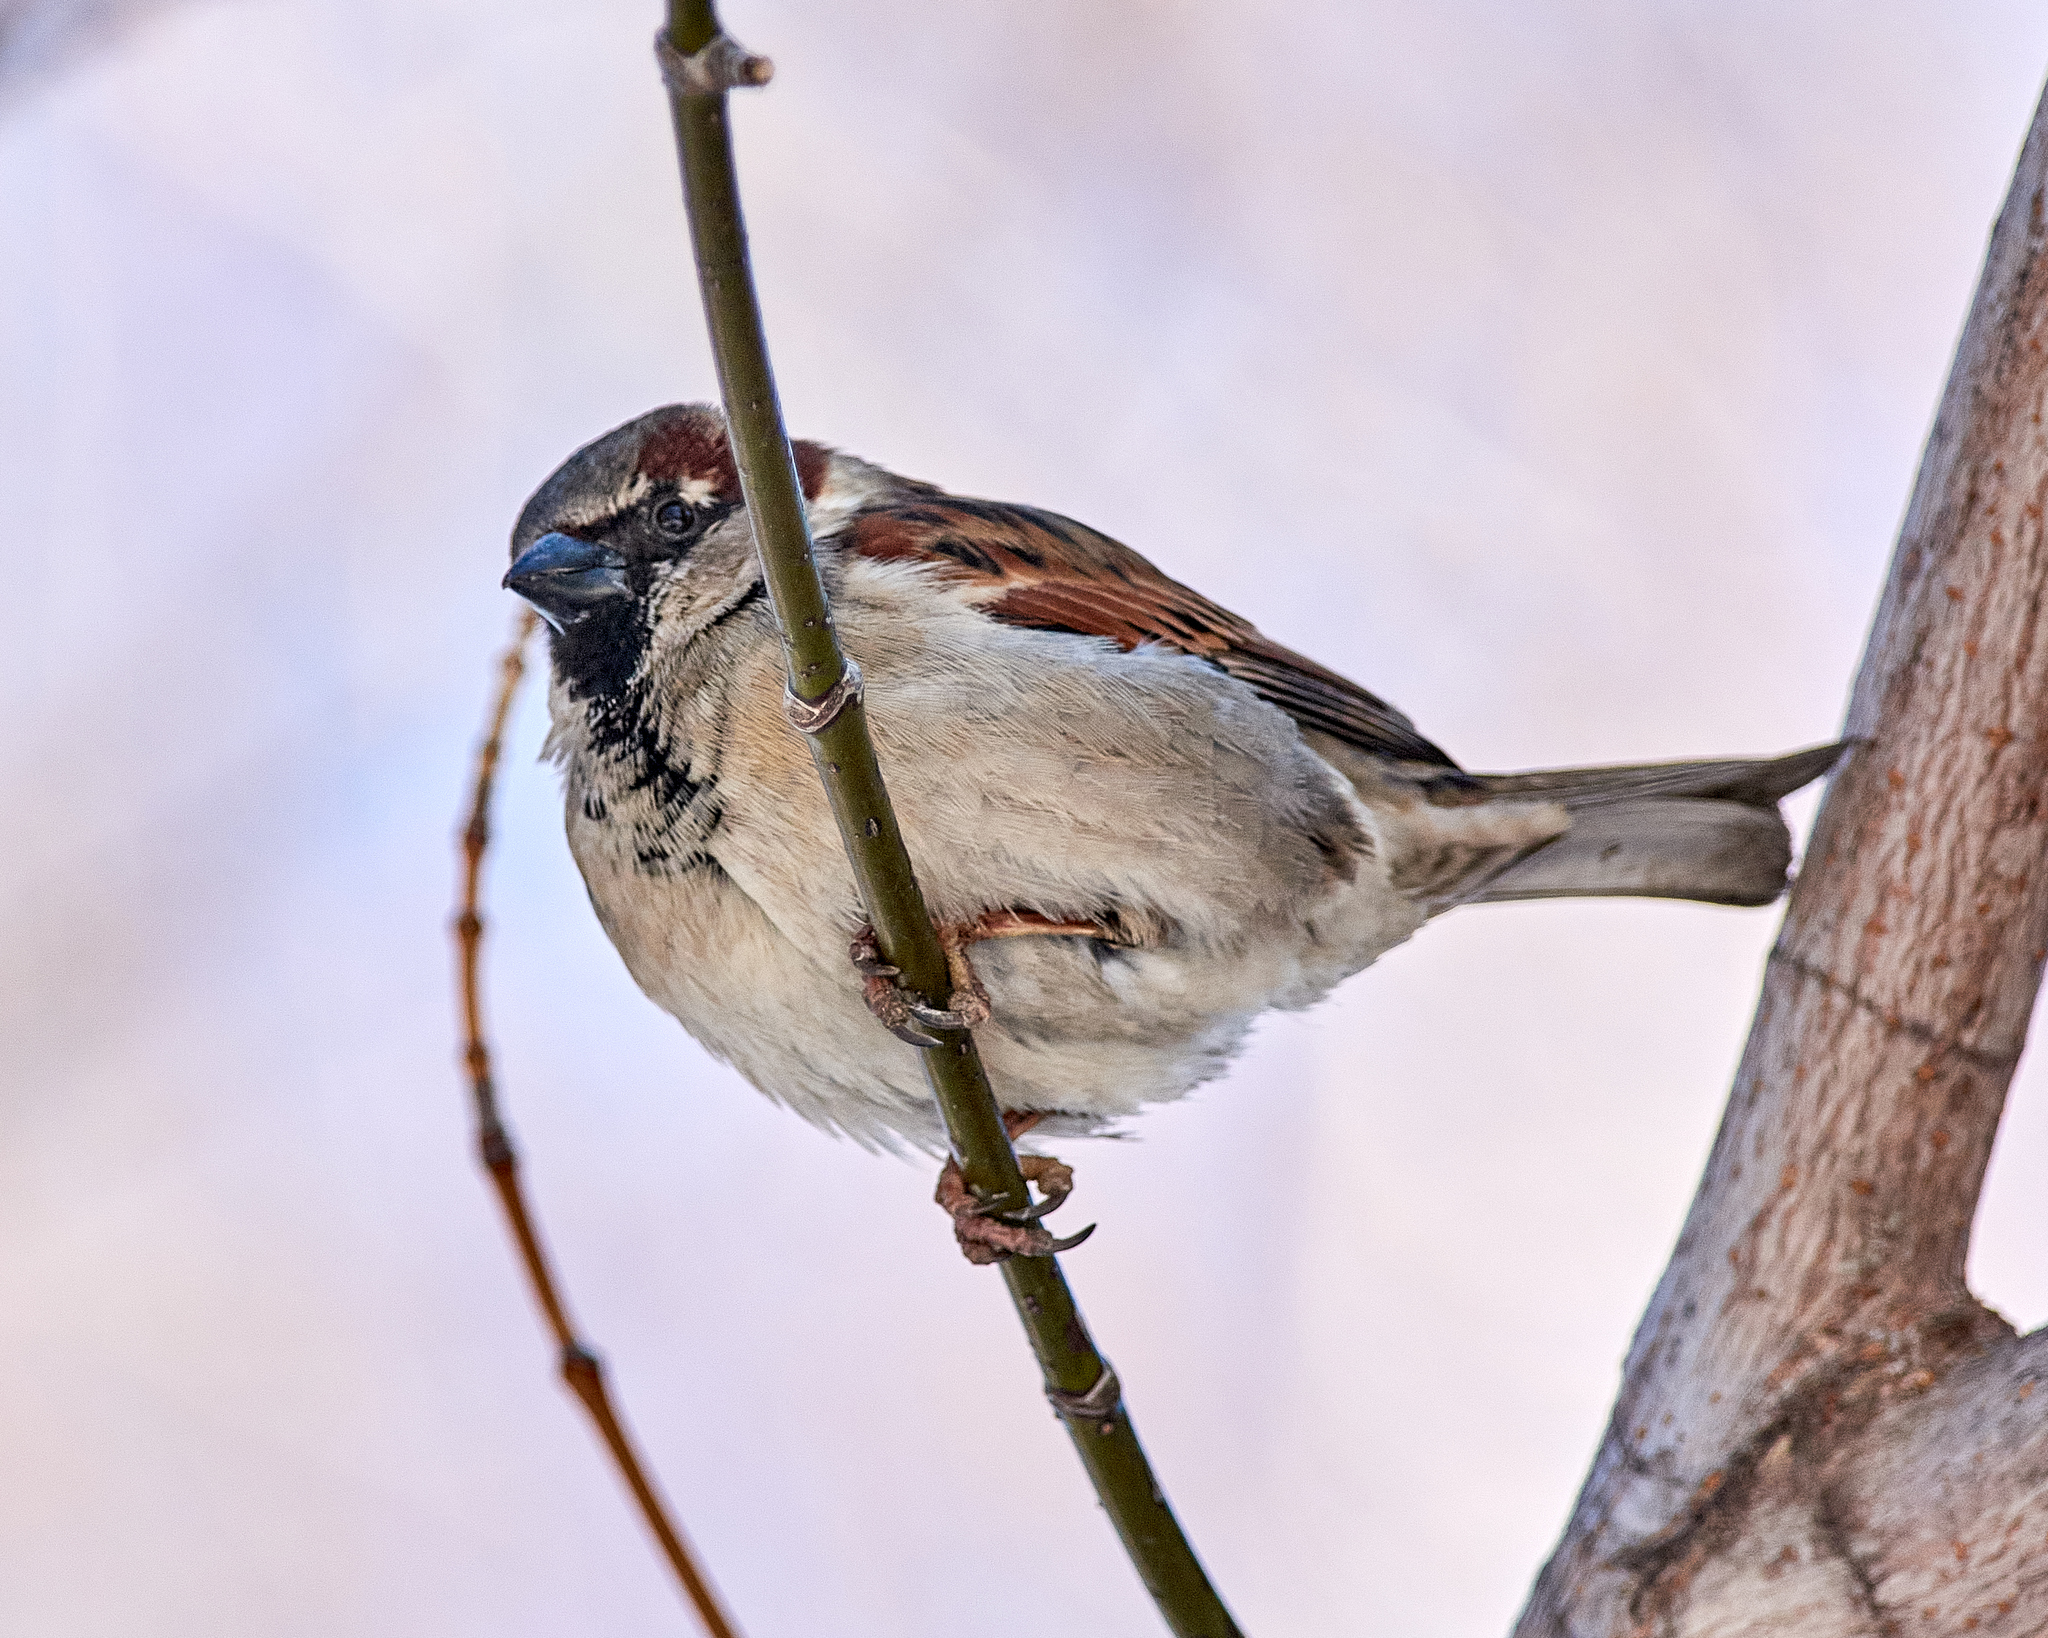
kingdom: Animalia
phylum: Chordata
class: Aves
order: Passeriformes
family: Passeridae
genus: Passer
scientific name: Passer domesticus
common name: House sparrow
